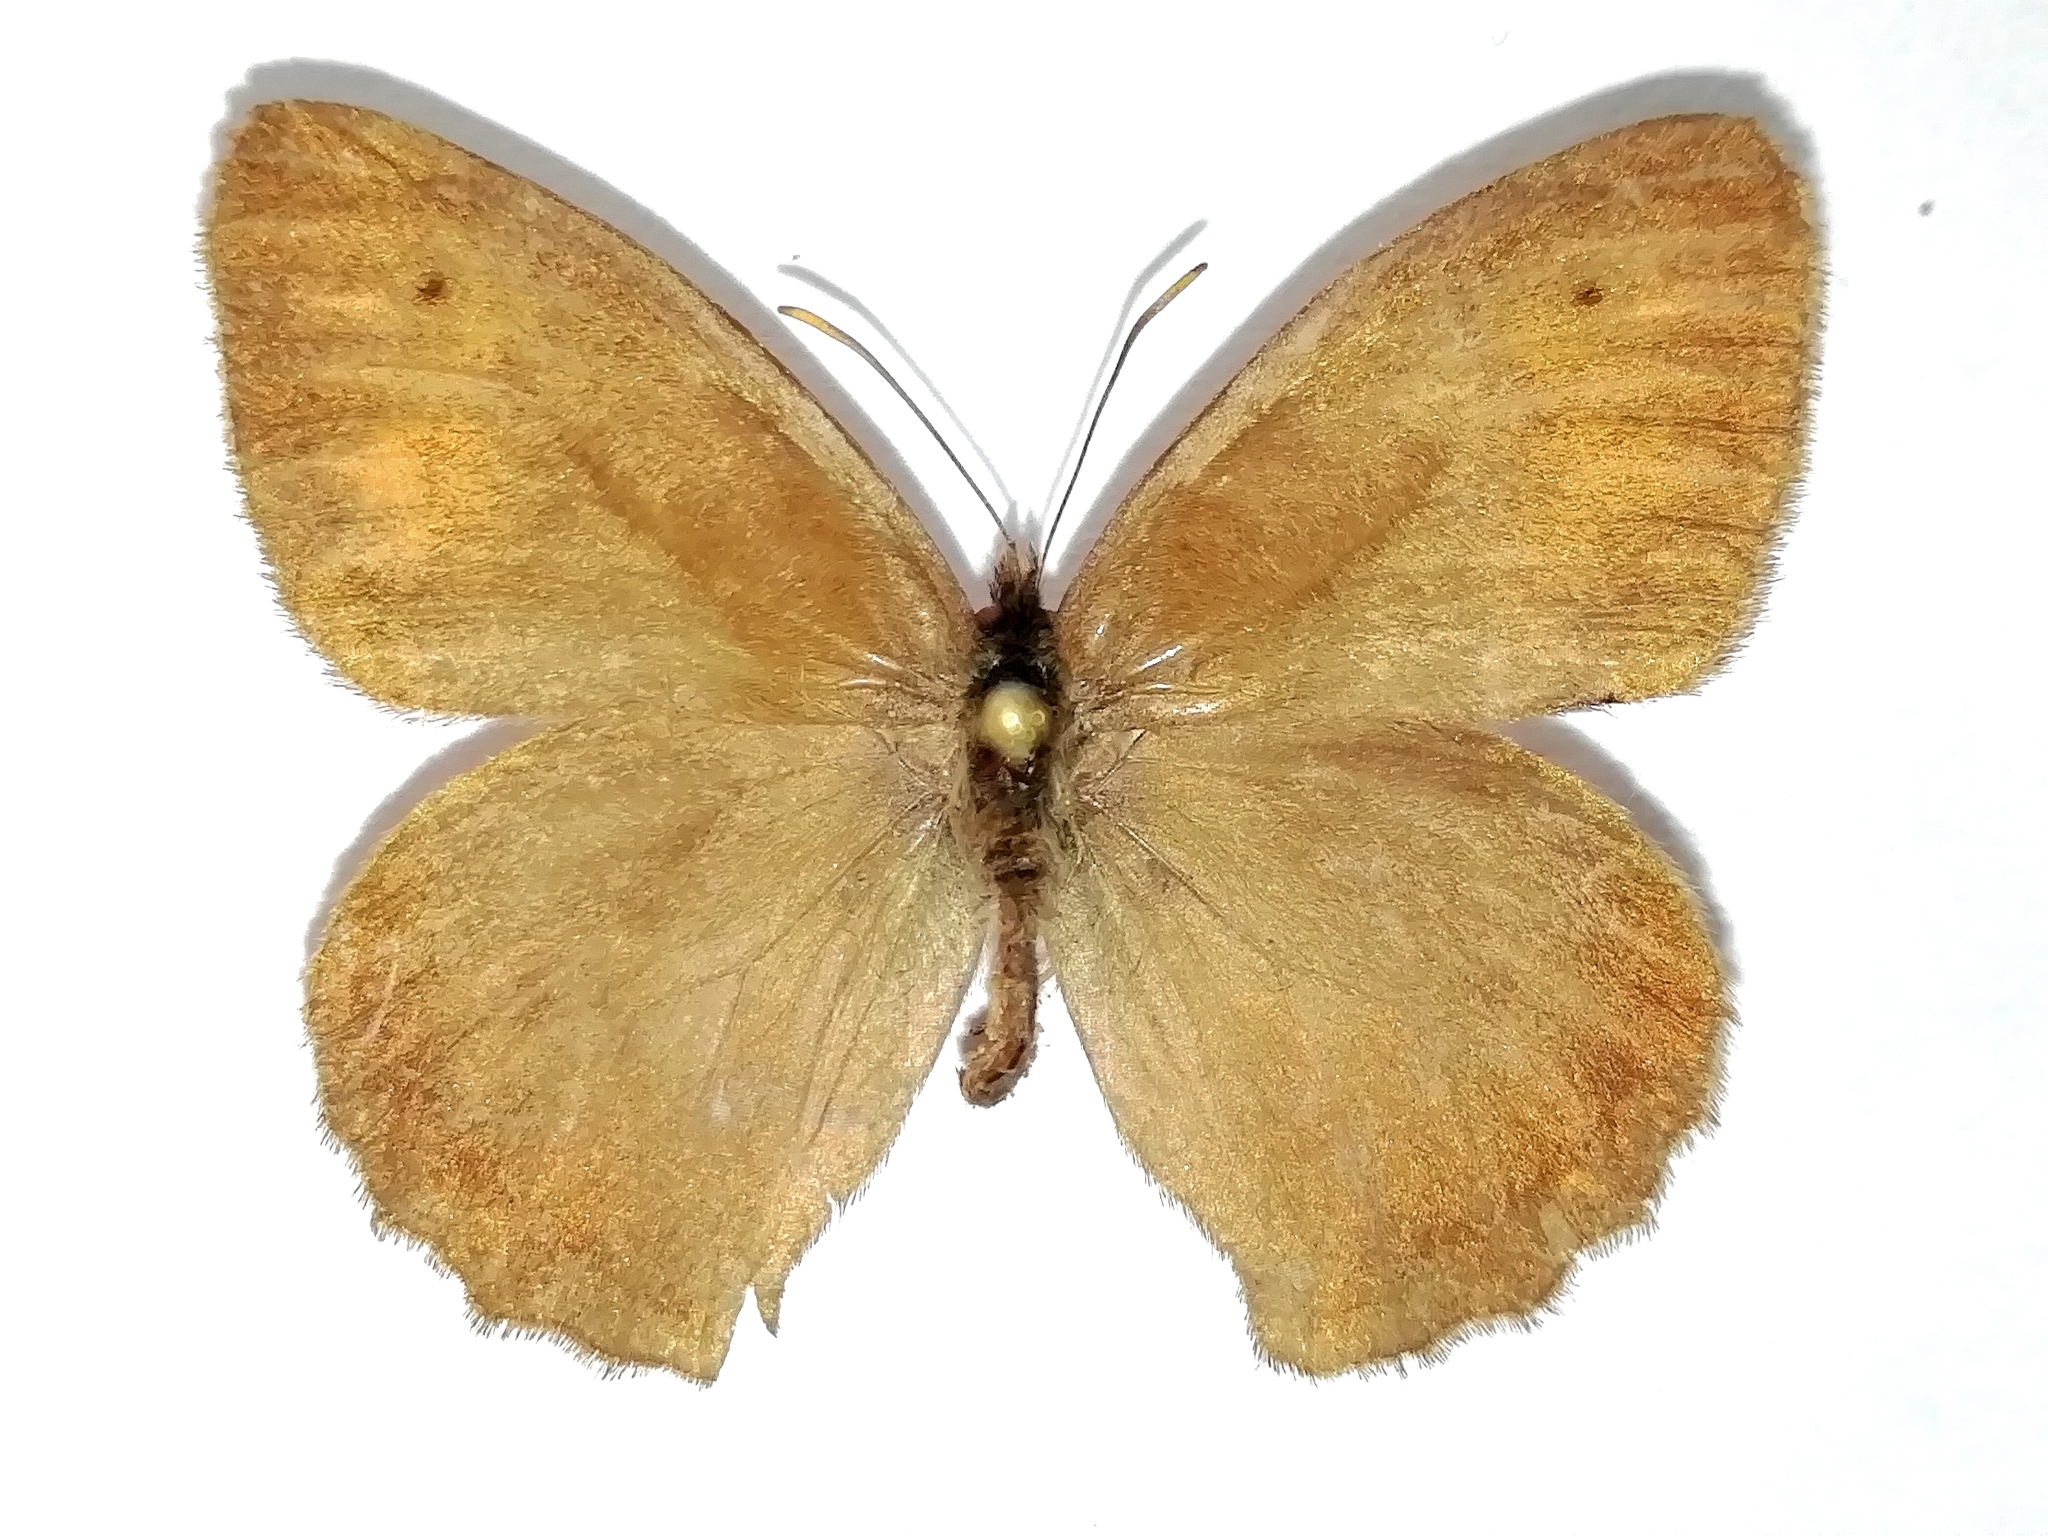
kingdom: Animalia
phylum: Arthropoda
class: Insecta
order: Lepidoptera
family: Nymphalidae
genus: Hyponephele
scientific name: Hyponephele lycaon
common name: Dusky meadow brown
